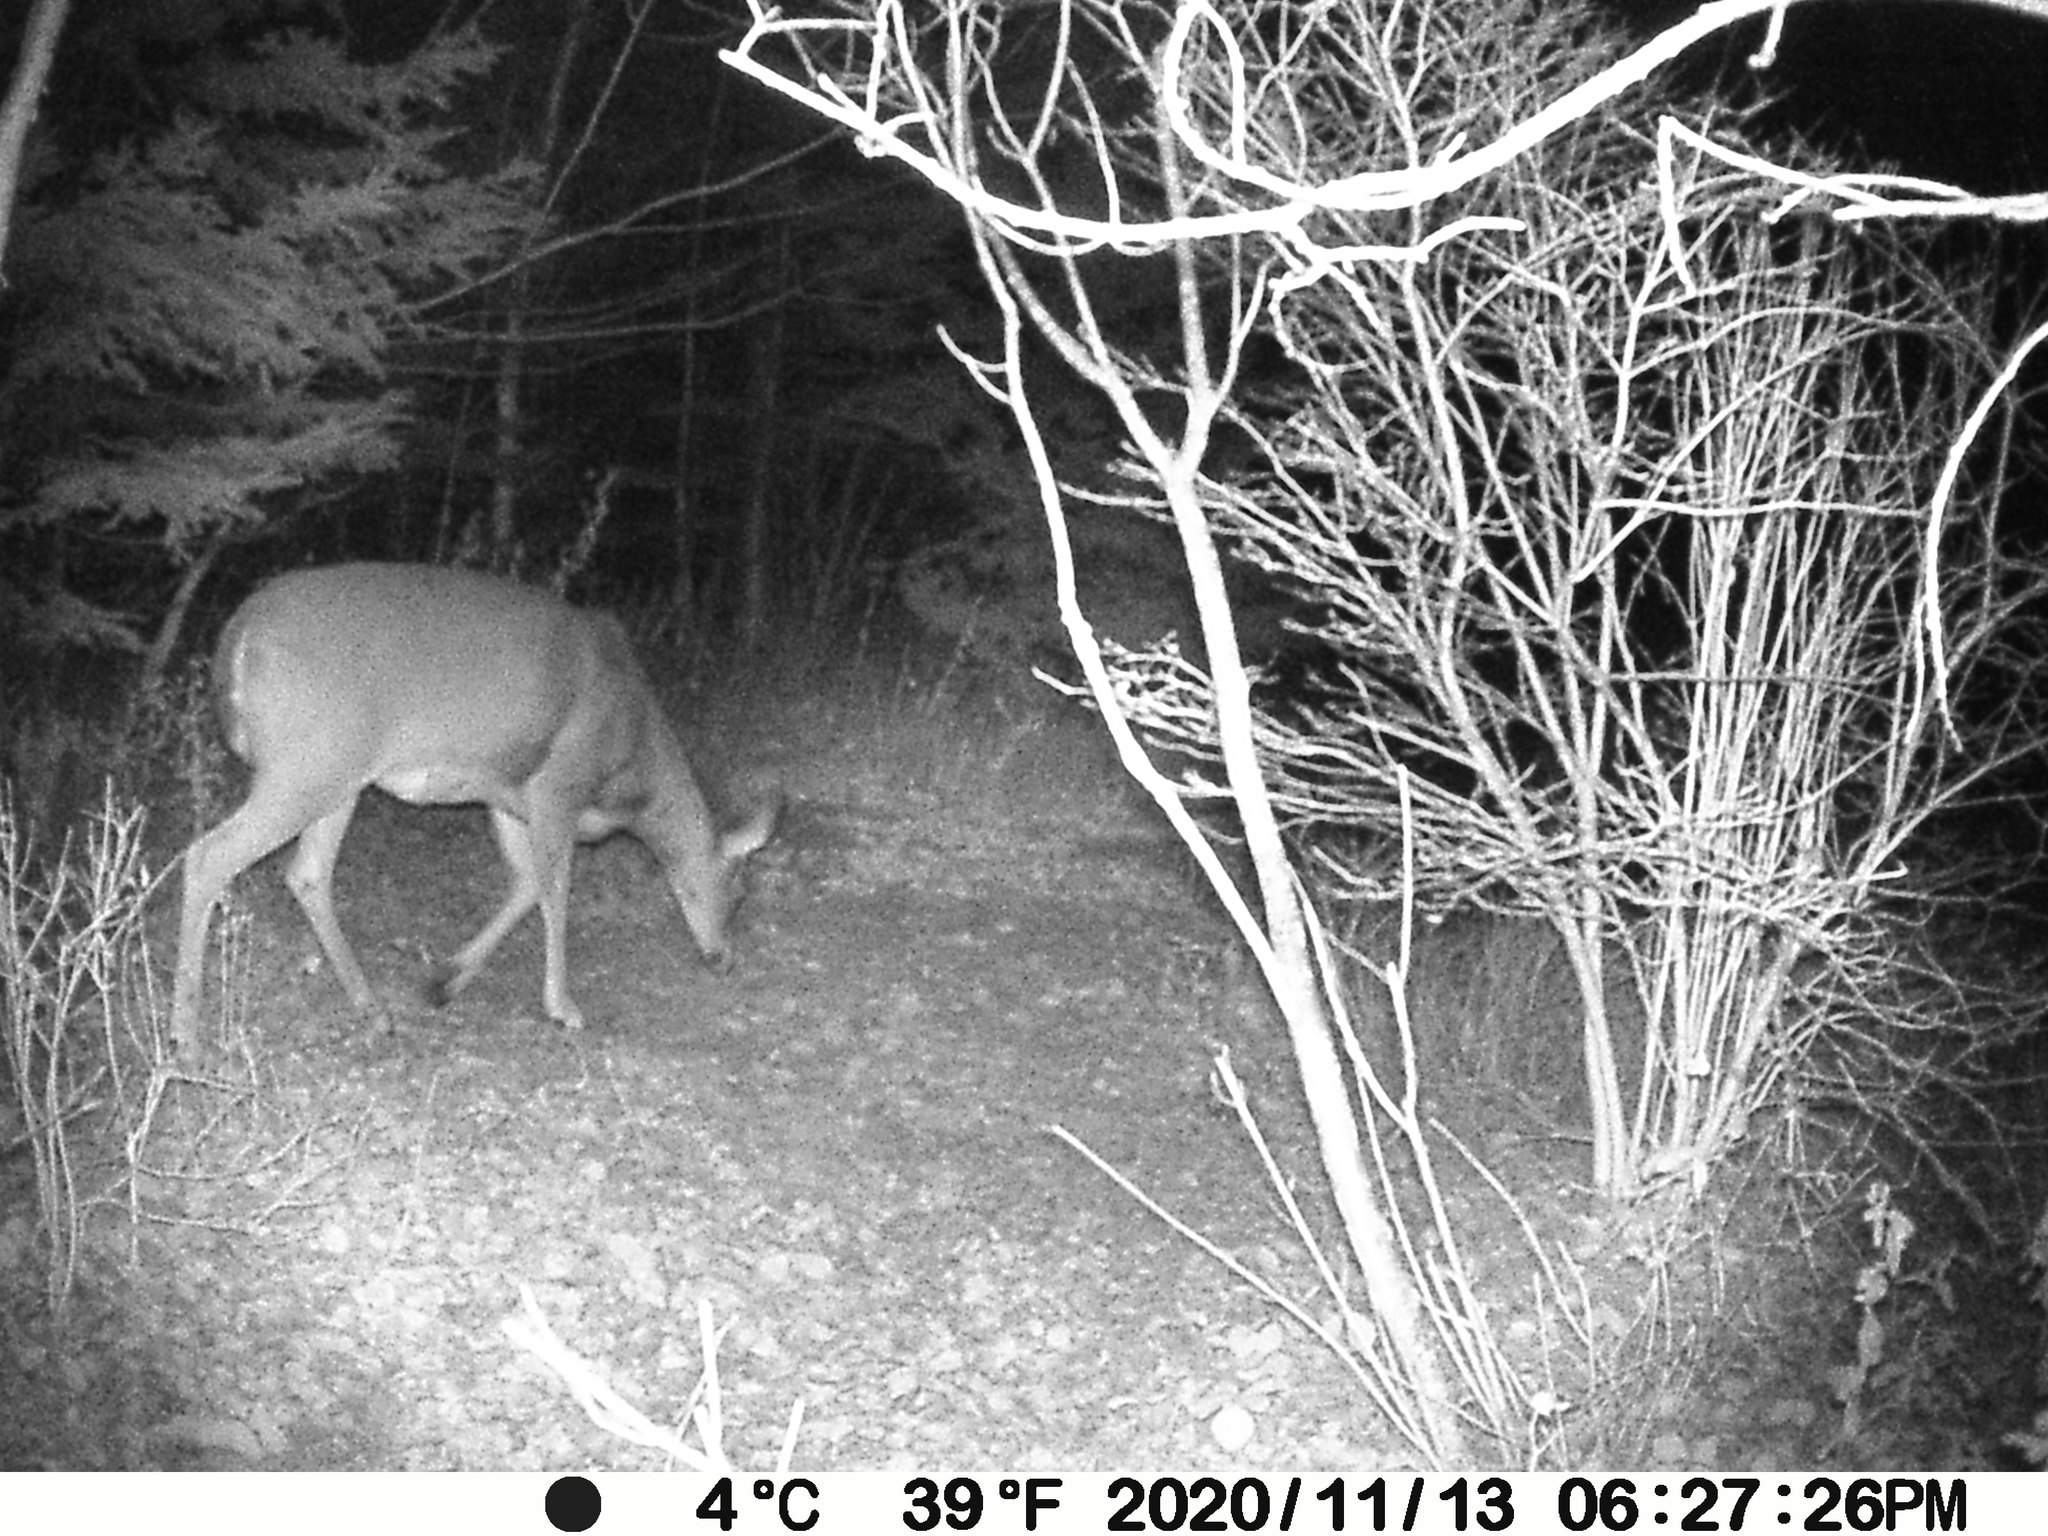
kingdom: Animalia
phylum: Chordata
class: Mammalia
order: Artiodactyla
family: Cervidae
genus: Odocoileus
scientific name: Odocoileus virginianus
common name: White-tailed deer
